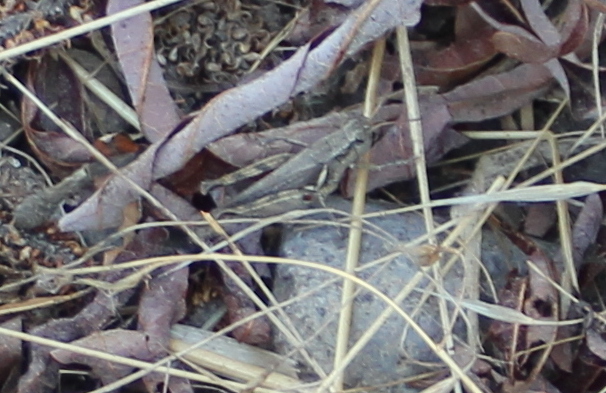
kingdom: Animalia
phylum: Arthropoda
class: Insecta
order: Orthoptera
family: Acrididae
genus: Melanoplus
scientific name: Melanoplus
